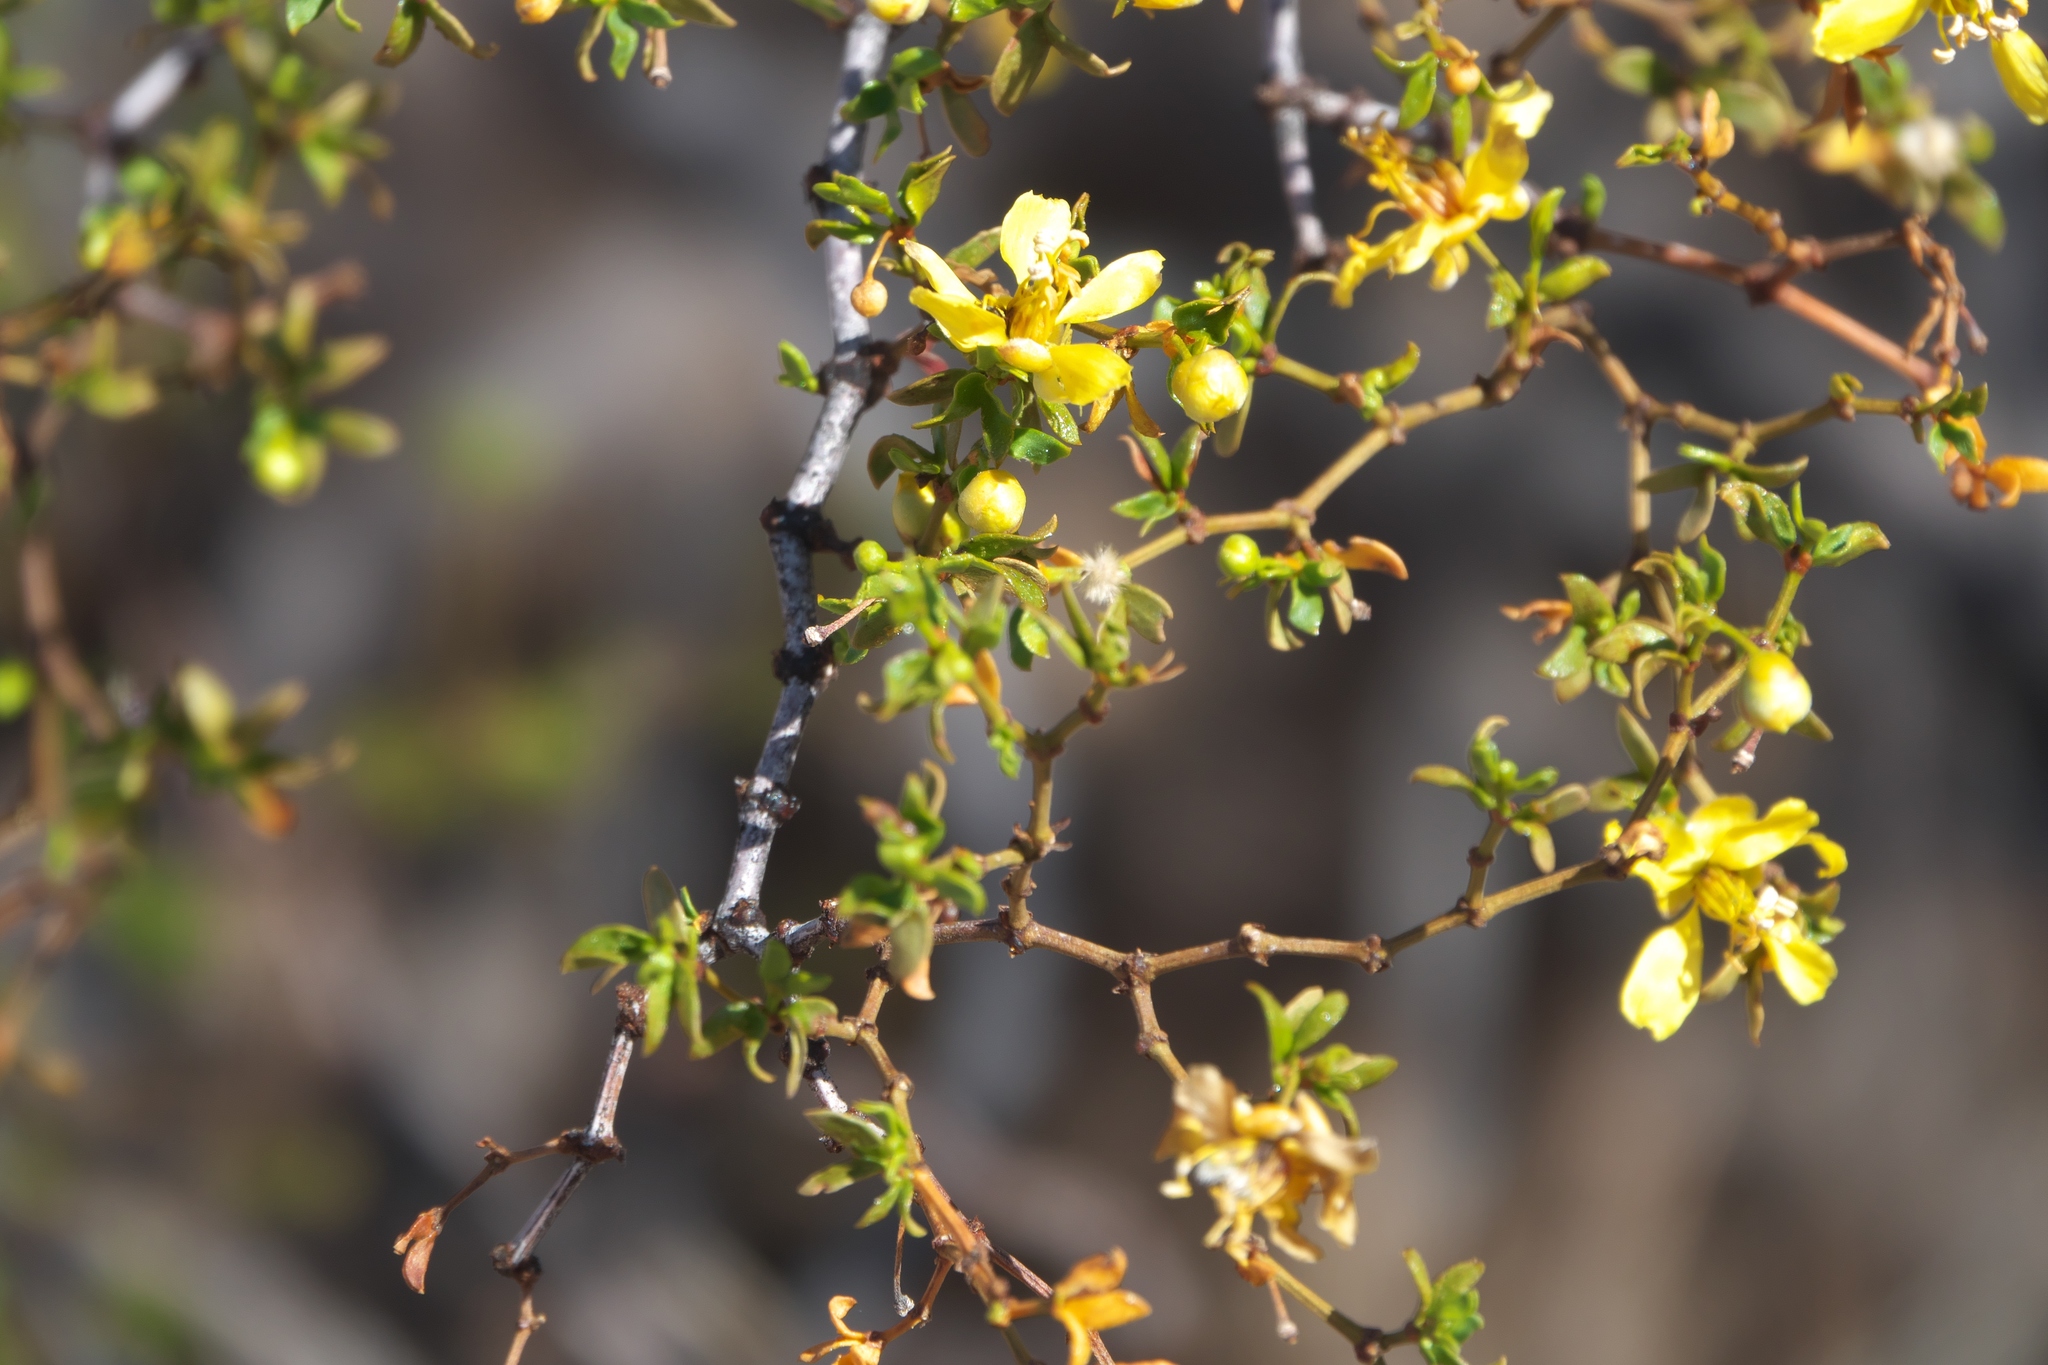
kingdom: Plantae
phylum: Tracheophyta
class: Magnoliopsida
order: Zygophyllales
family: Zygophyllaceae
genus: Larrea
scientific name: Larrea tridentata
